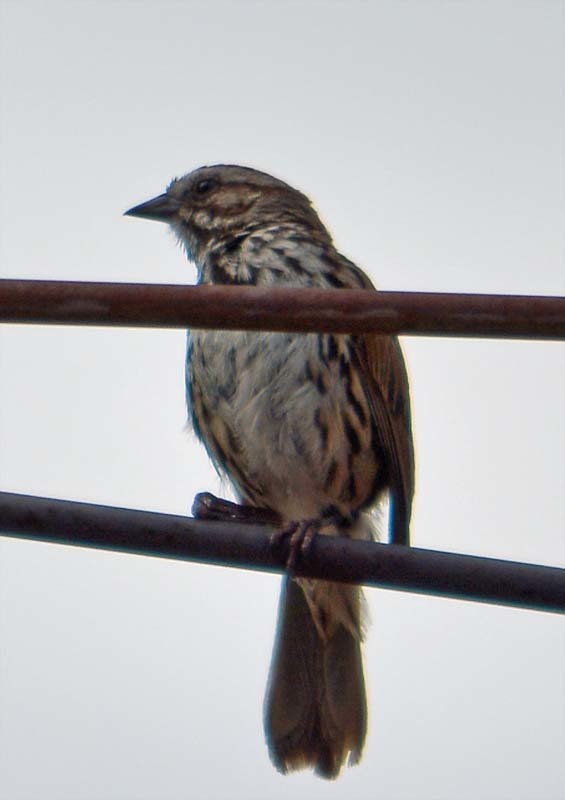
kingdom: Animalia
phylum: Chordata
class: Aves
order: Passeriformes
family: Passerellidae
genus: Melospiza
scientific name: Melospiza melodia
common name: Song sparrow
